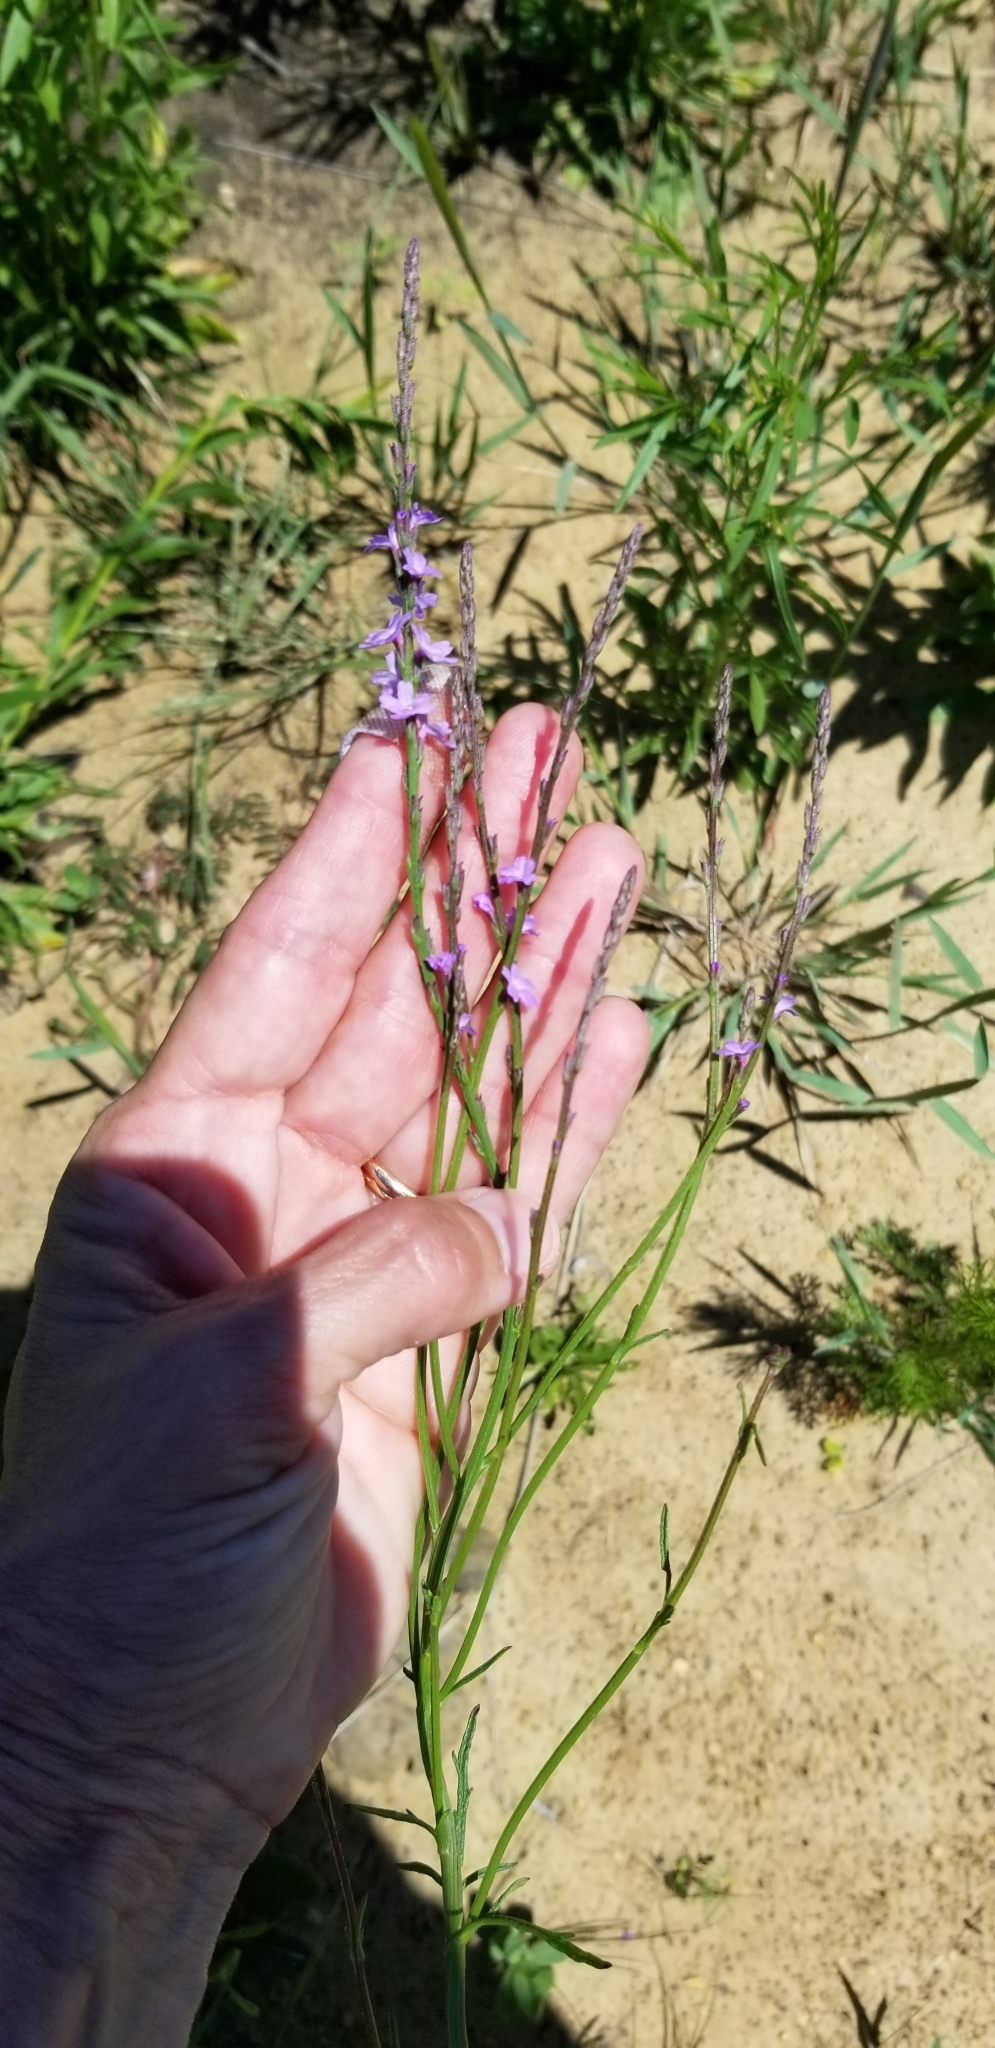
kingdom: Plantae
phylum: Tracheophyta
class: Magnoliopsida
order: Lamiales
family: Verbenaceae
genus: Verbena
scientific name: Verbena halei
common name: Texas vervain
